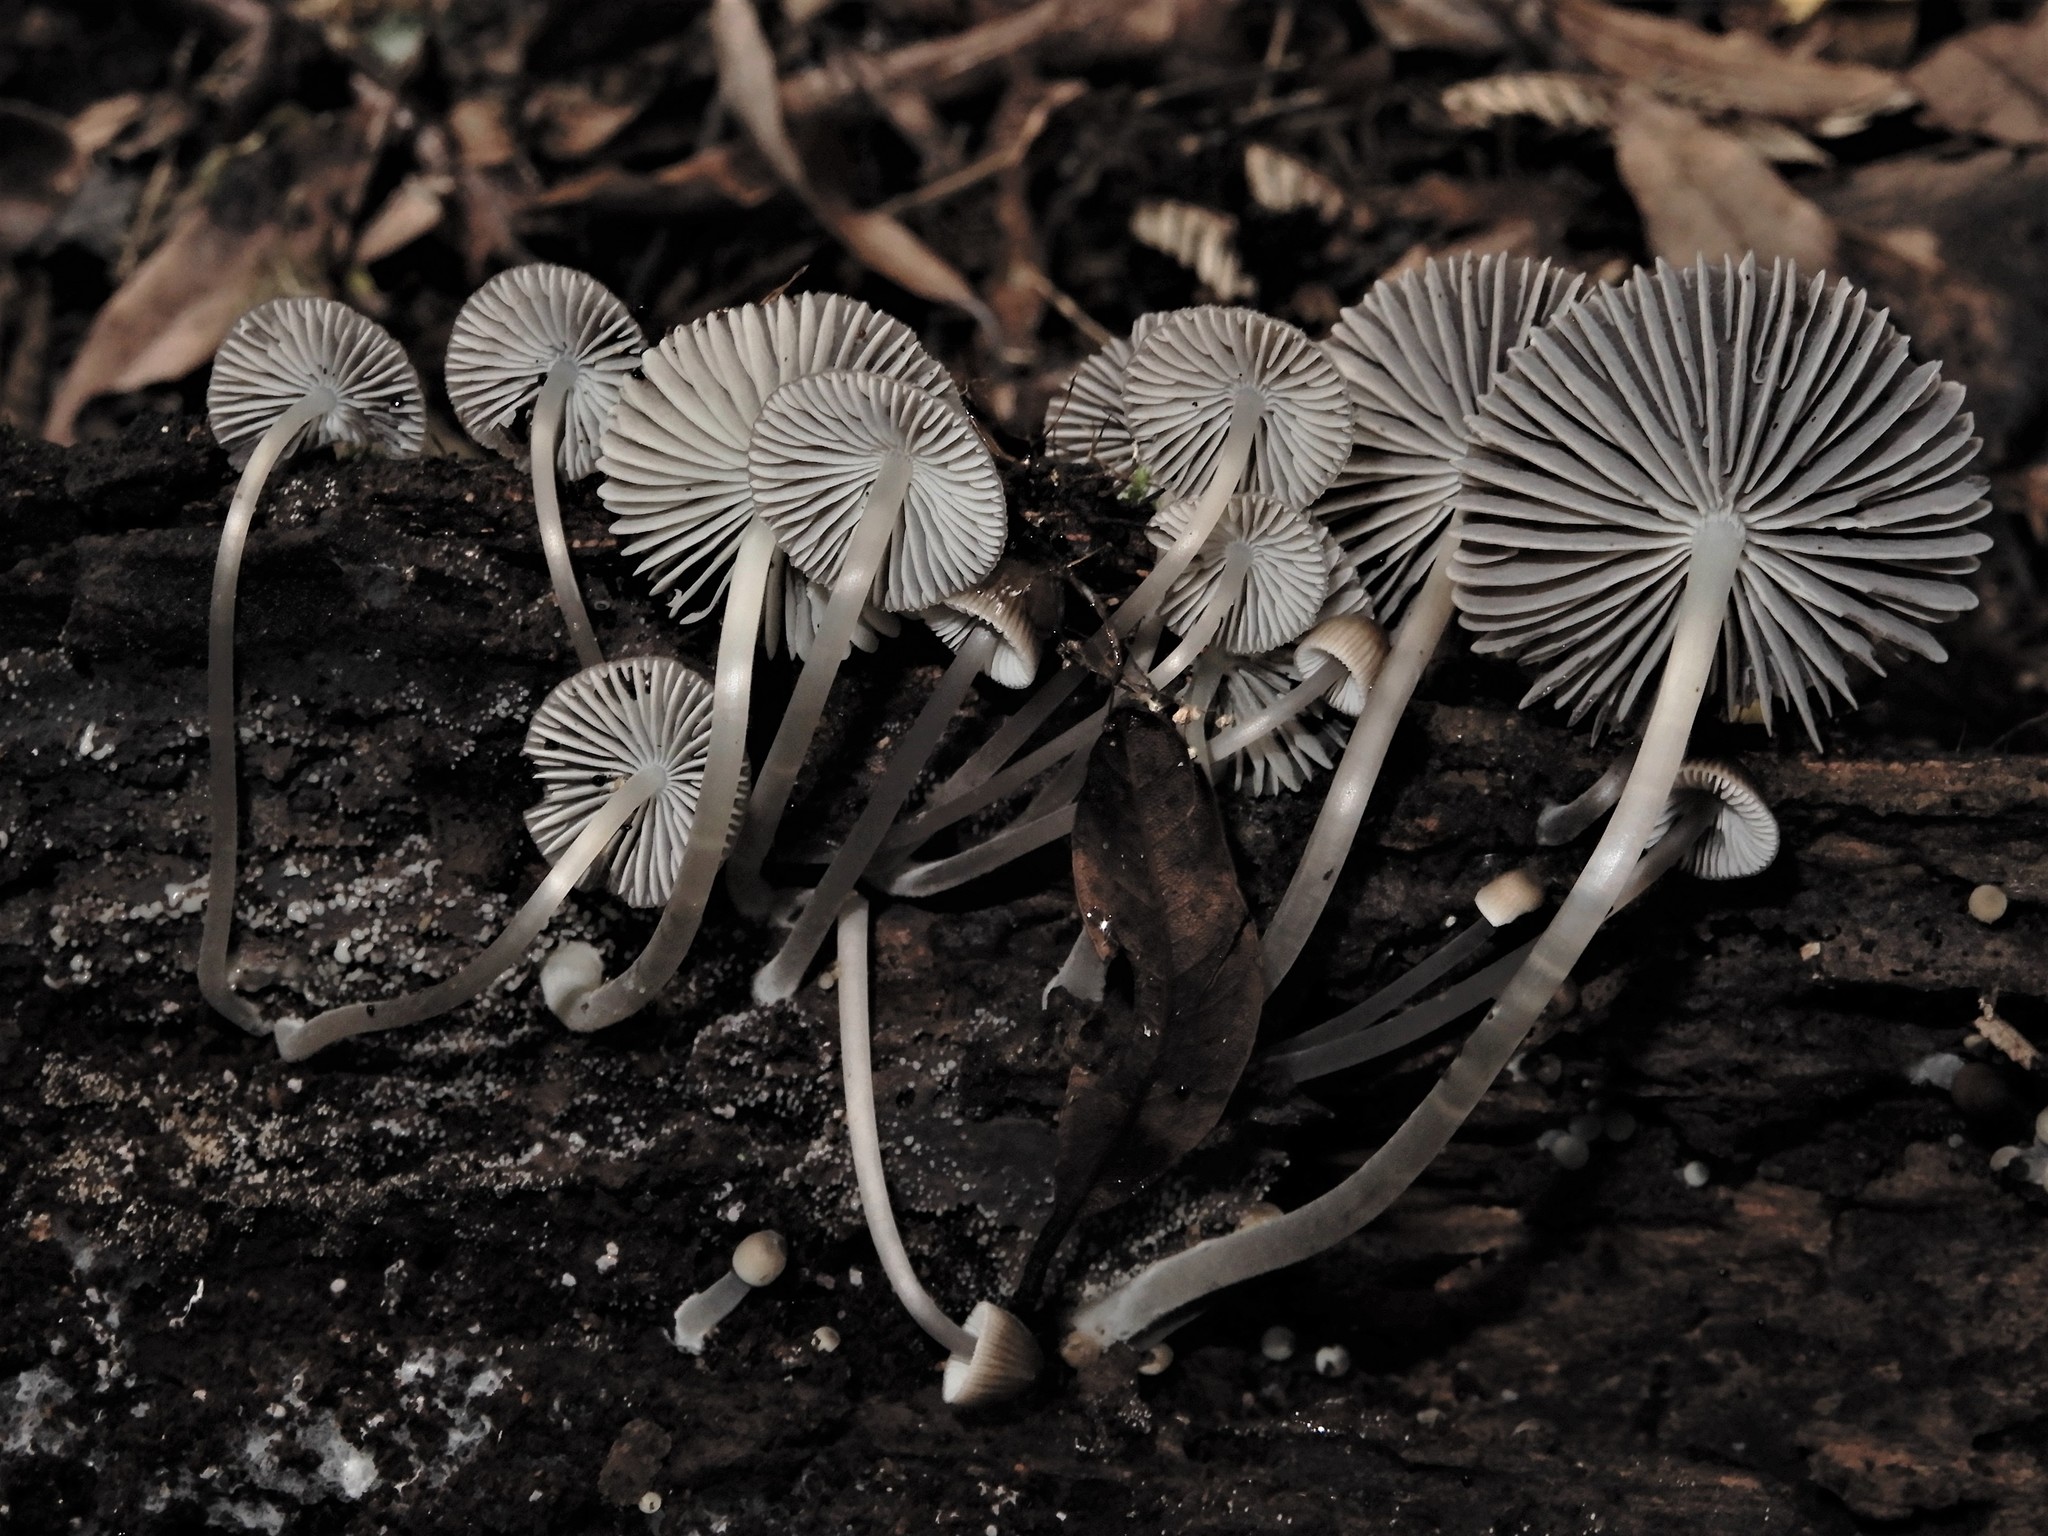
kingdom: Fungi
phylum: Basidiomycota
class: Agaricomycetes
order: Agaricales
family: Mycenaceae
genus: Mycena
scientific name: Mycena
